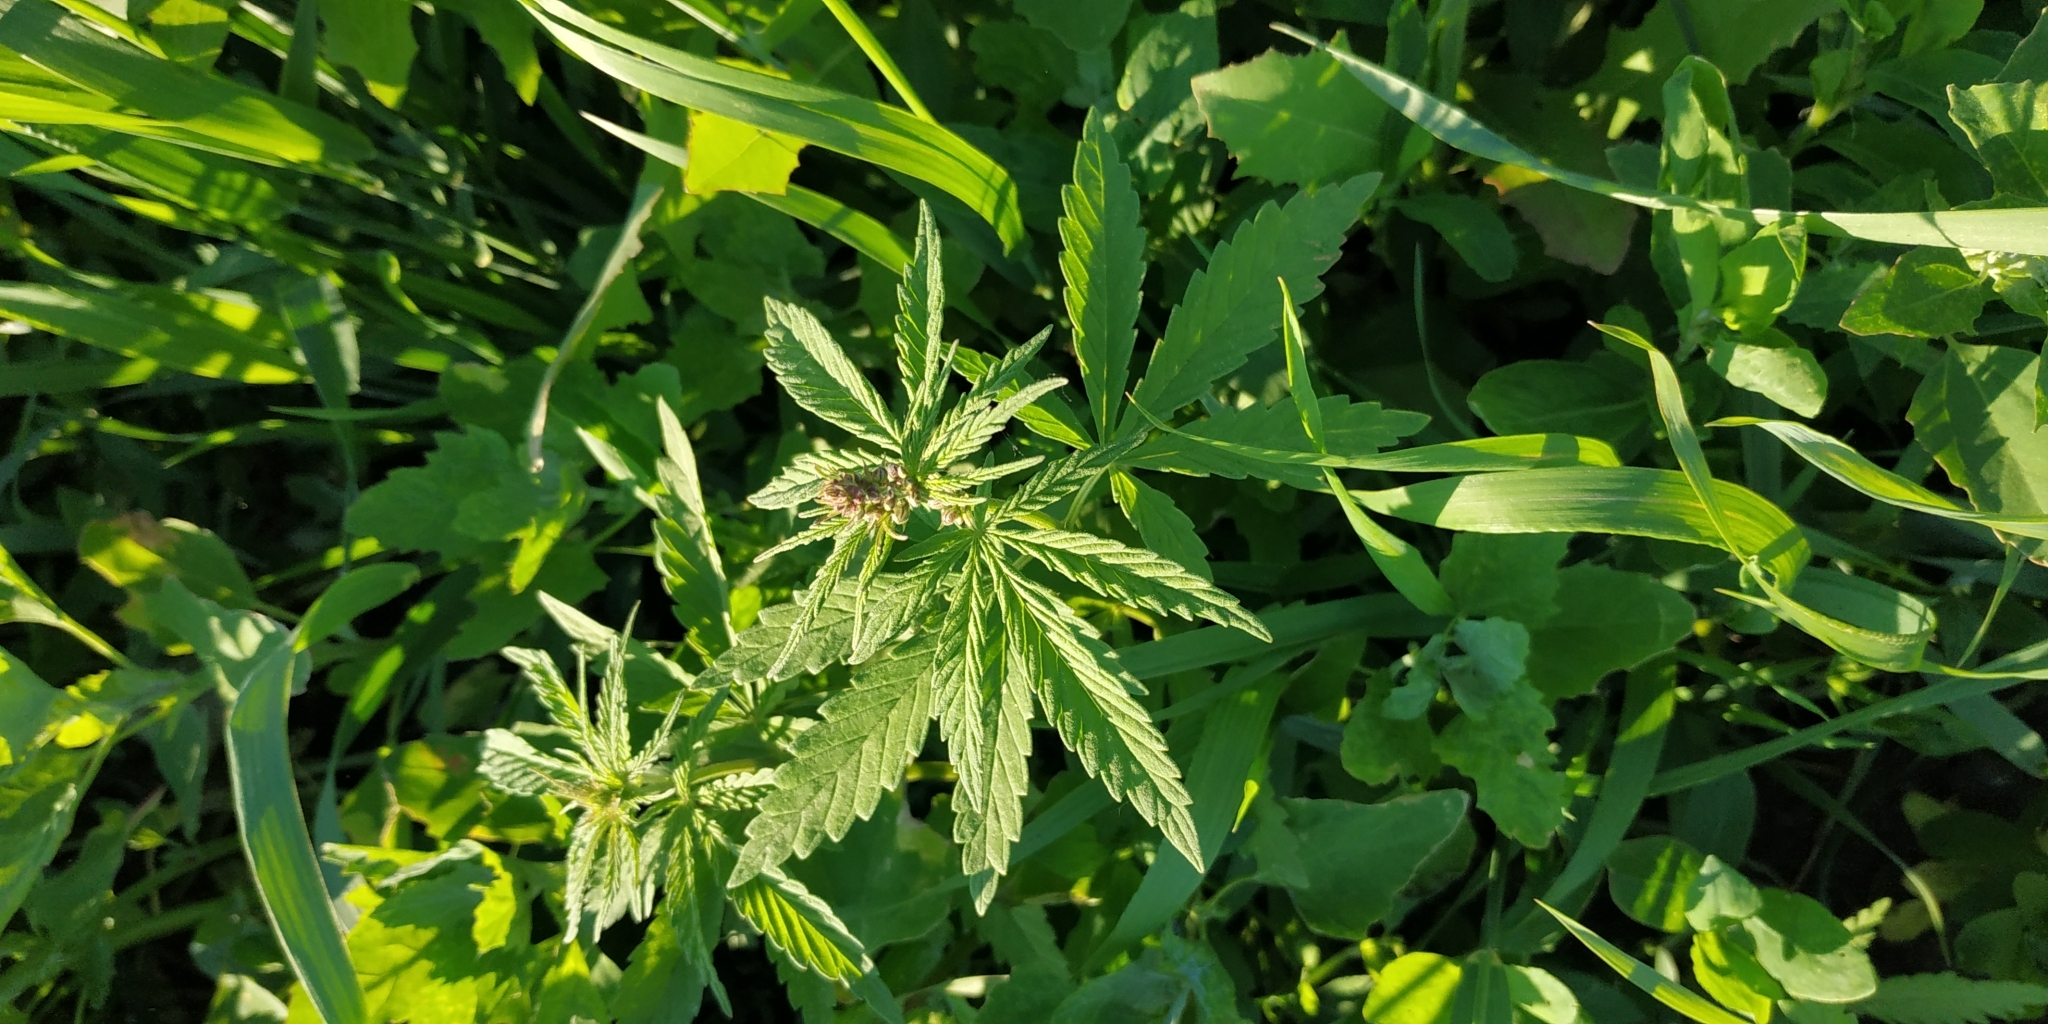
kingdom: Plantae
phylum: Tracheophyta
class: Magnoliopsida
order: Rosales
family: Cannabaceae
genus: Cannabis
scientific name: Cannabis sativa
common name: Hemp
